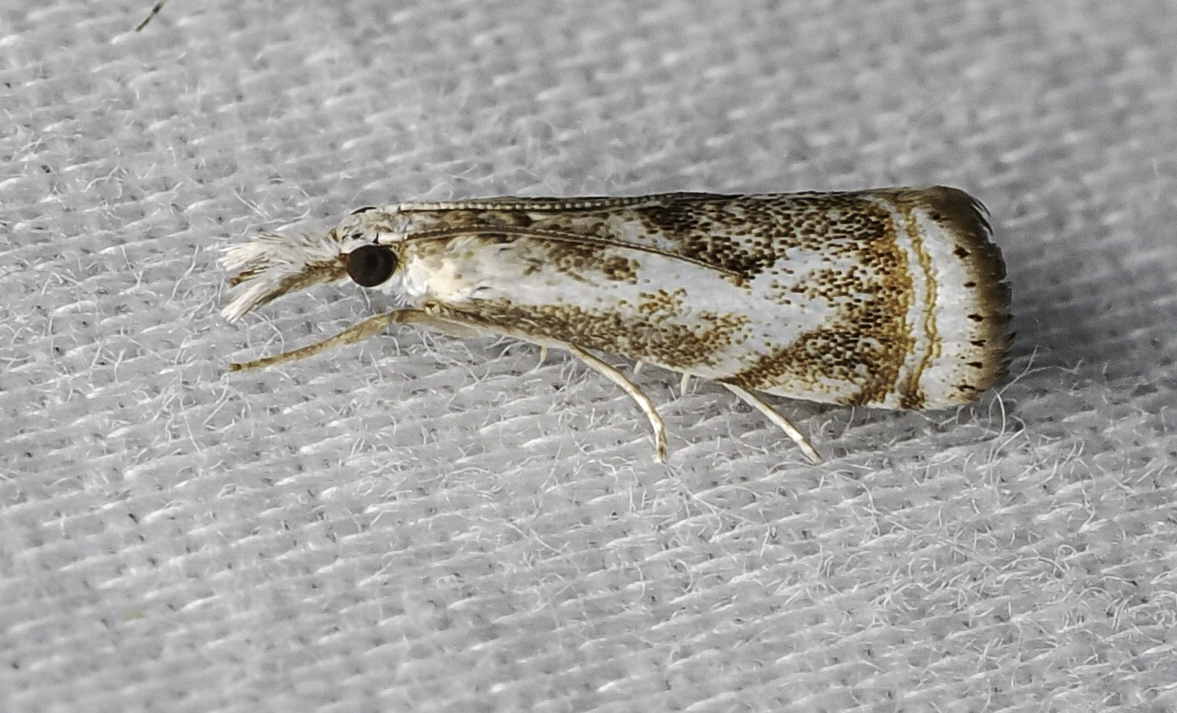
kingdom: Animalia
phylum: Arthropoda
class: Insecta
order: Lepidoptera
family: Crambidae
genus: Microcrambus
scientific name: Microcrambus elegans
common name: Elegant grass-veneer
